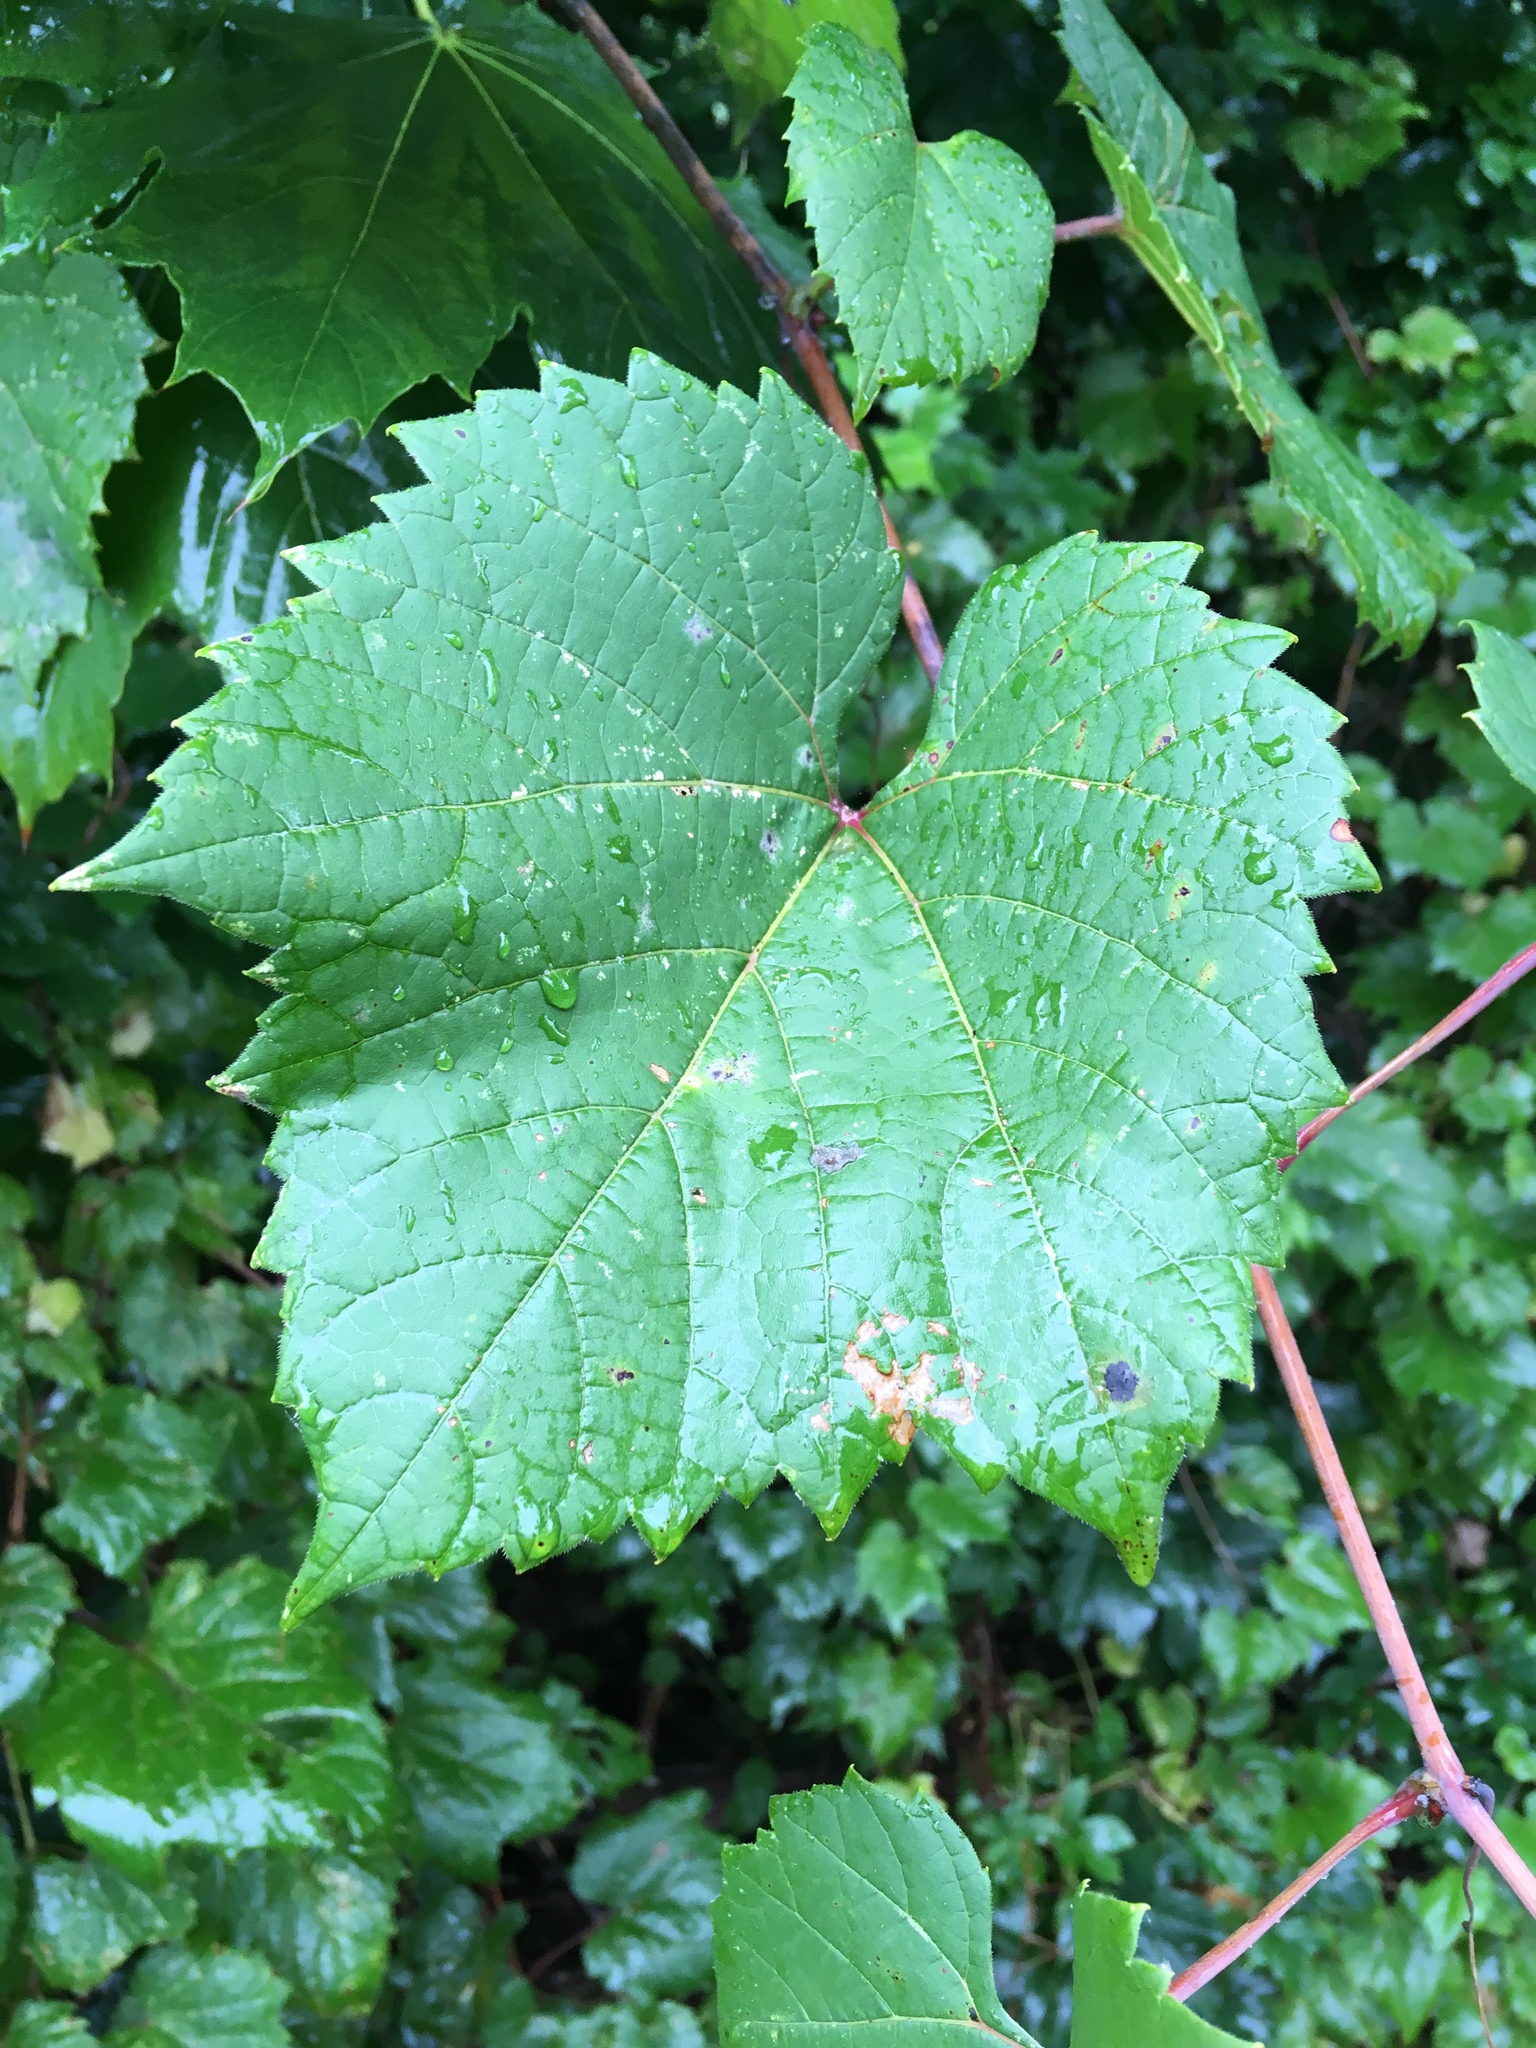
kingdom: Plantae
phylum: Tracheophyta
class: Magnoliopsida
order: Vitales
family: Vitaceae
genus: Vitis
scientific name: Vitis riparia
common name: Frost grape
